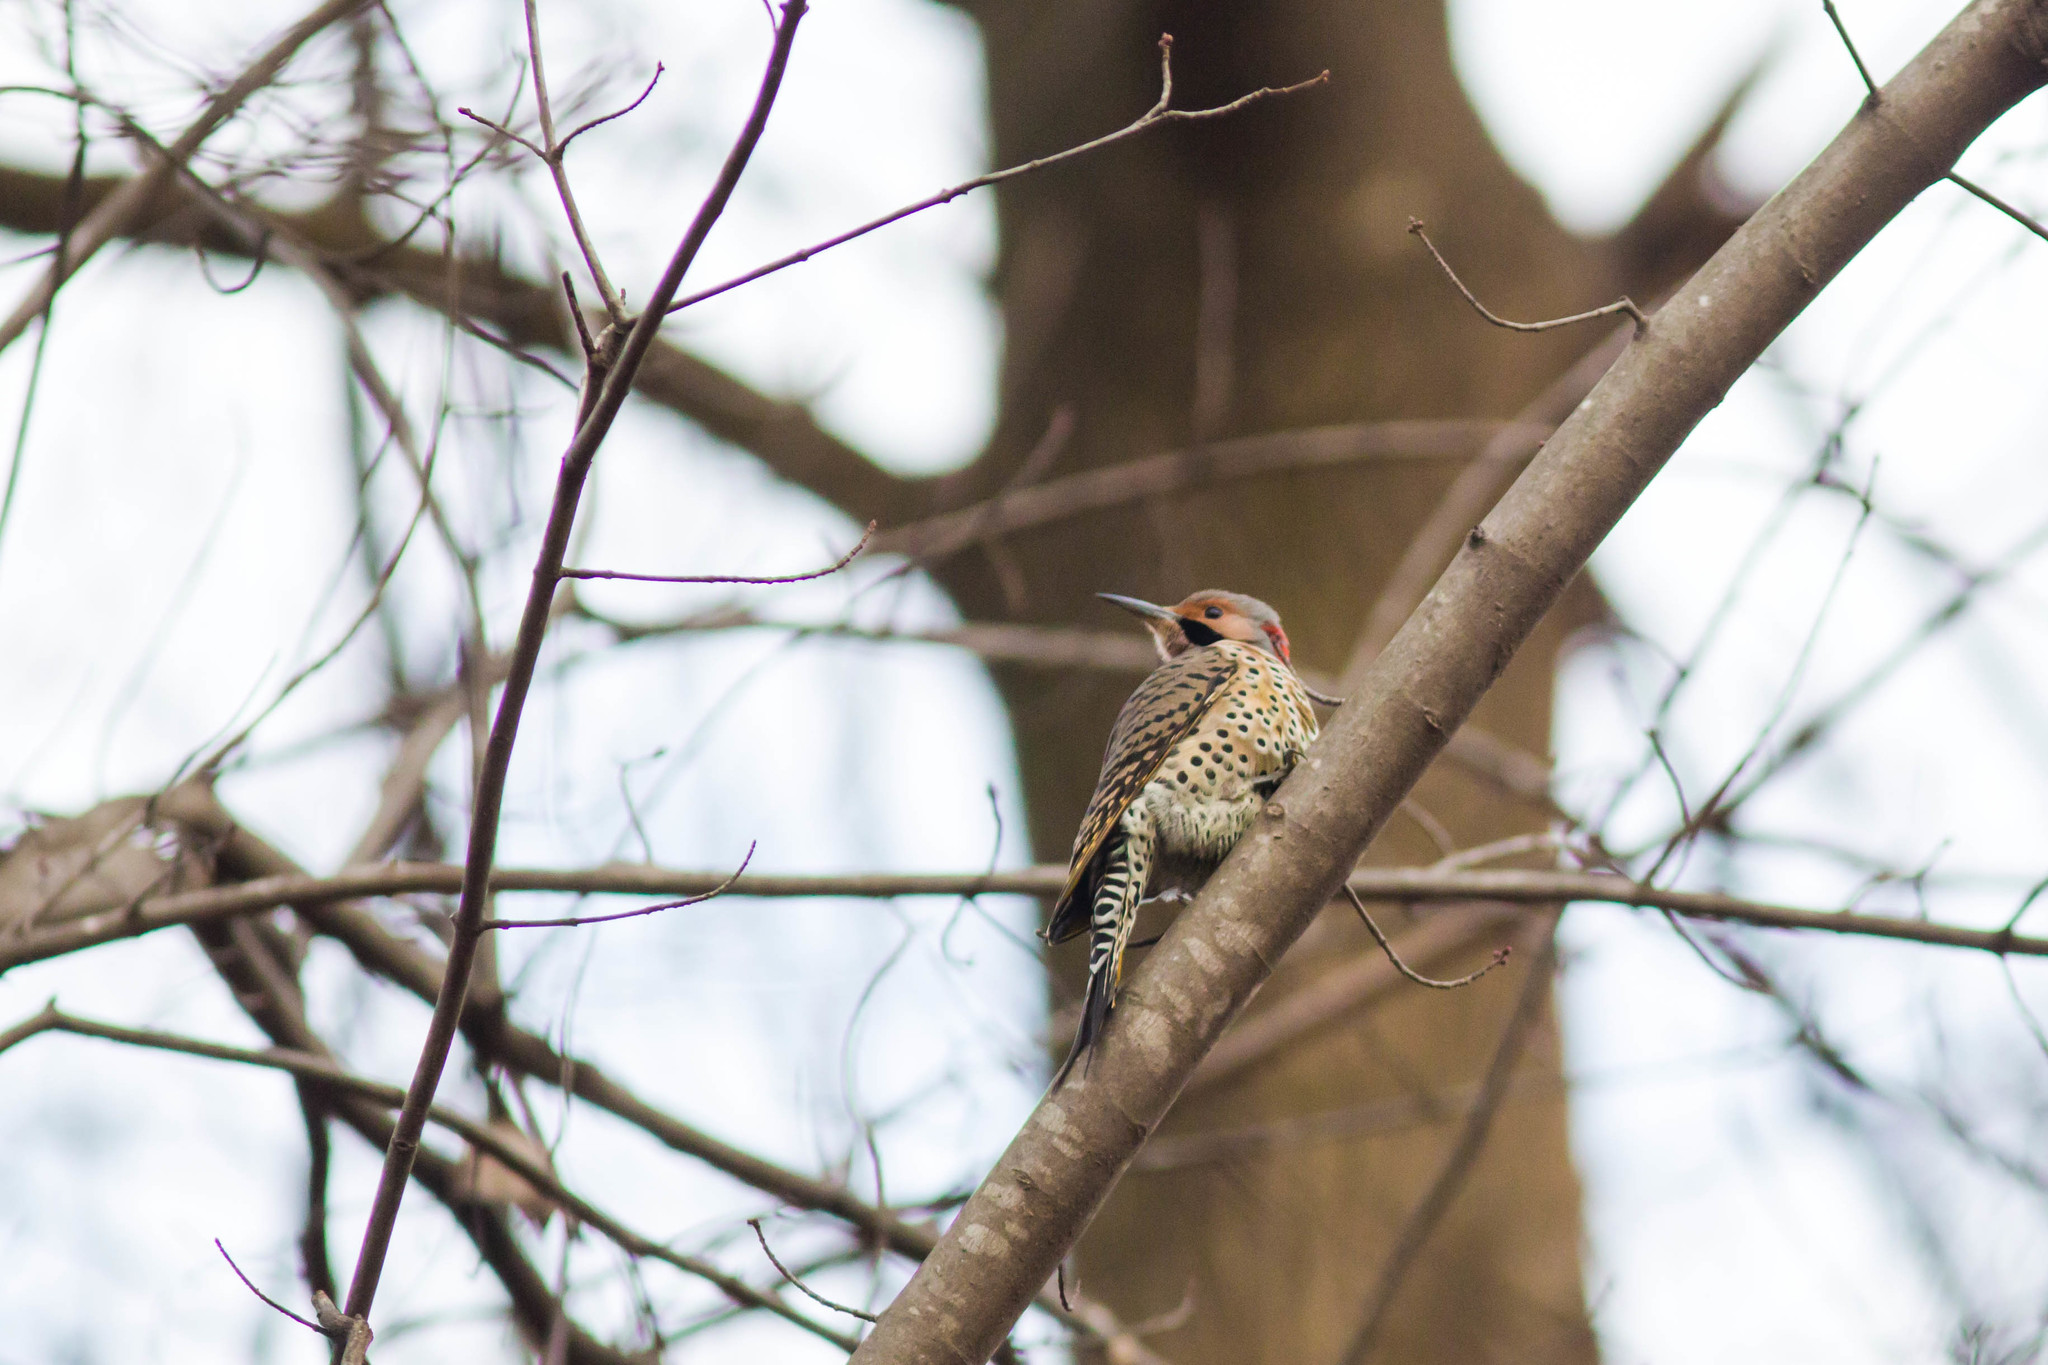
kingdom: Animalia
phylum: Chordata
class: Aves
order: Piciformes
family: Picidae
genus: Colaptes
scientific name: Colaptes auratus
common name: Northern flicker
